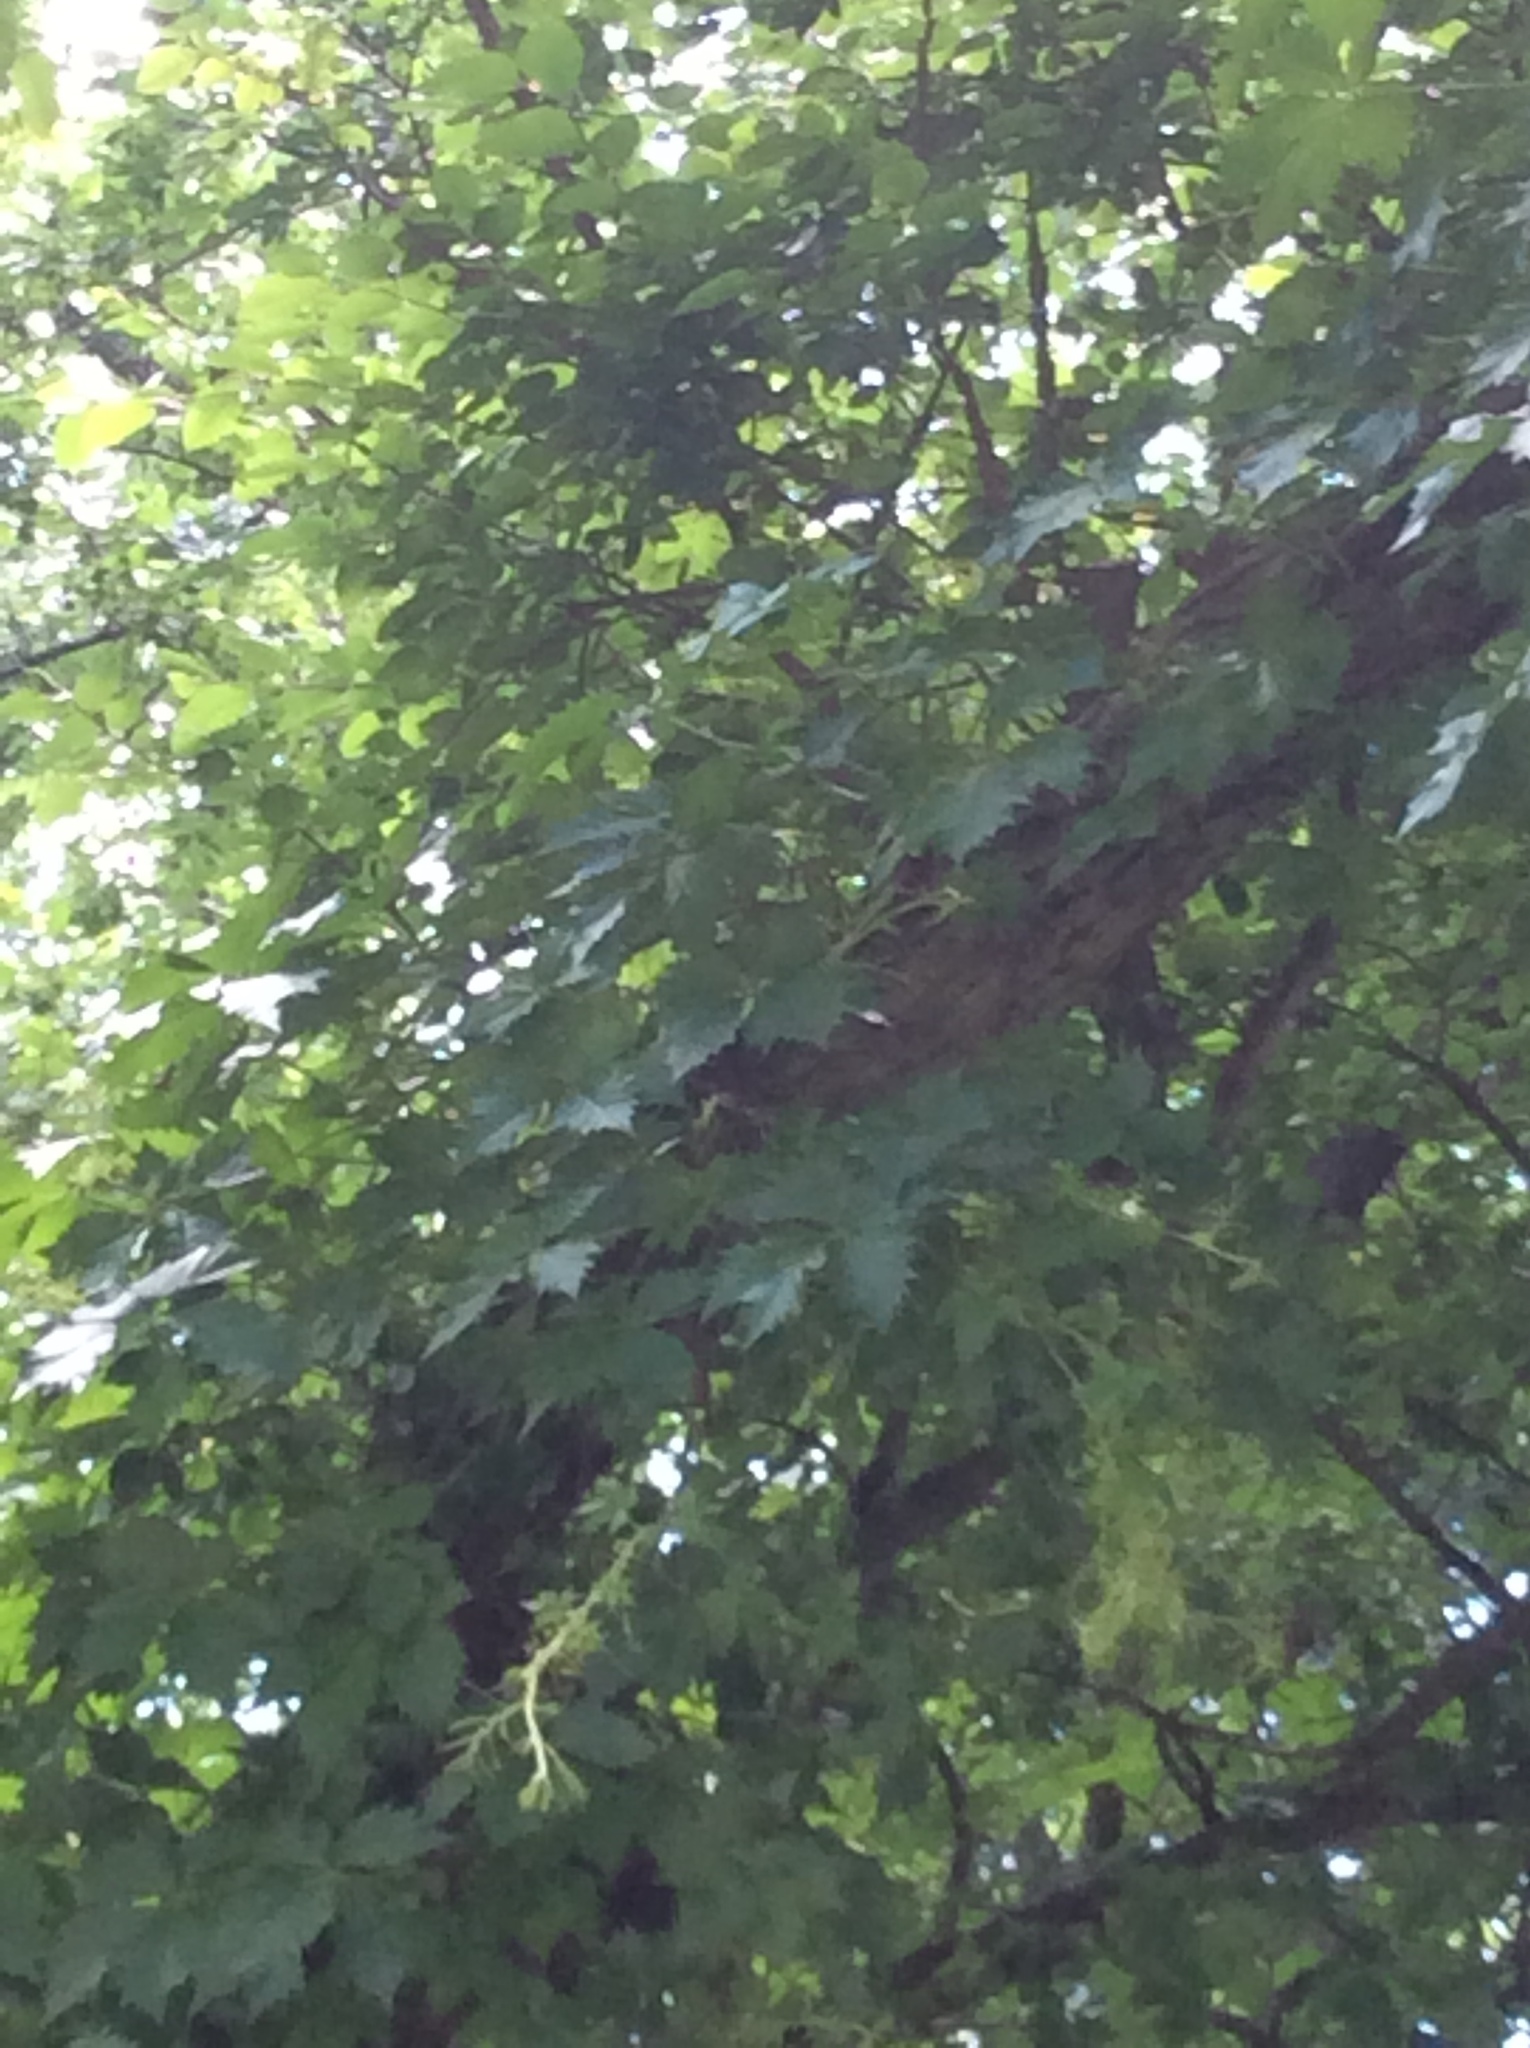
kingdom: Plantae
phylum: Tracheophyta
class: Magnoliopsida
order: Vitales
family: Vitaceae
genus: Parthenocissus
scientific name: Parthenocissus quinquefolia
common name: Virginia-creeper
